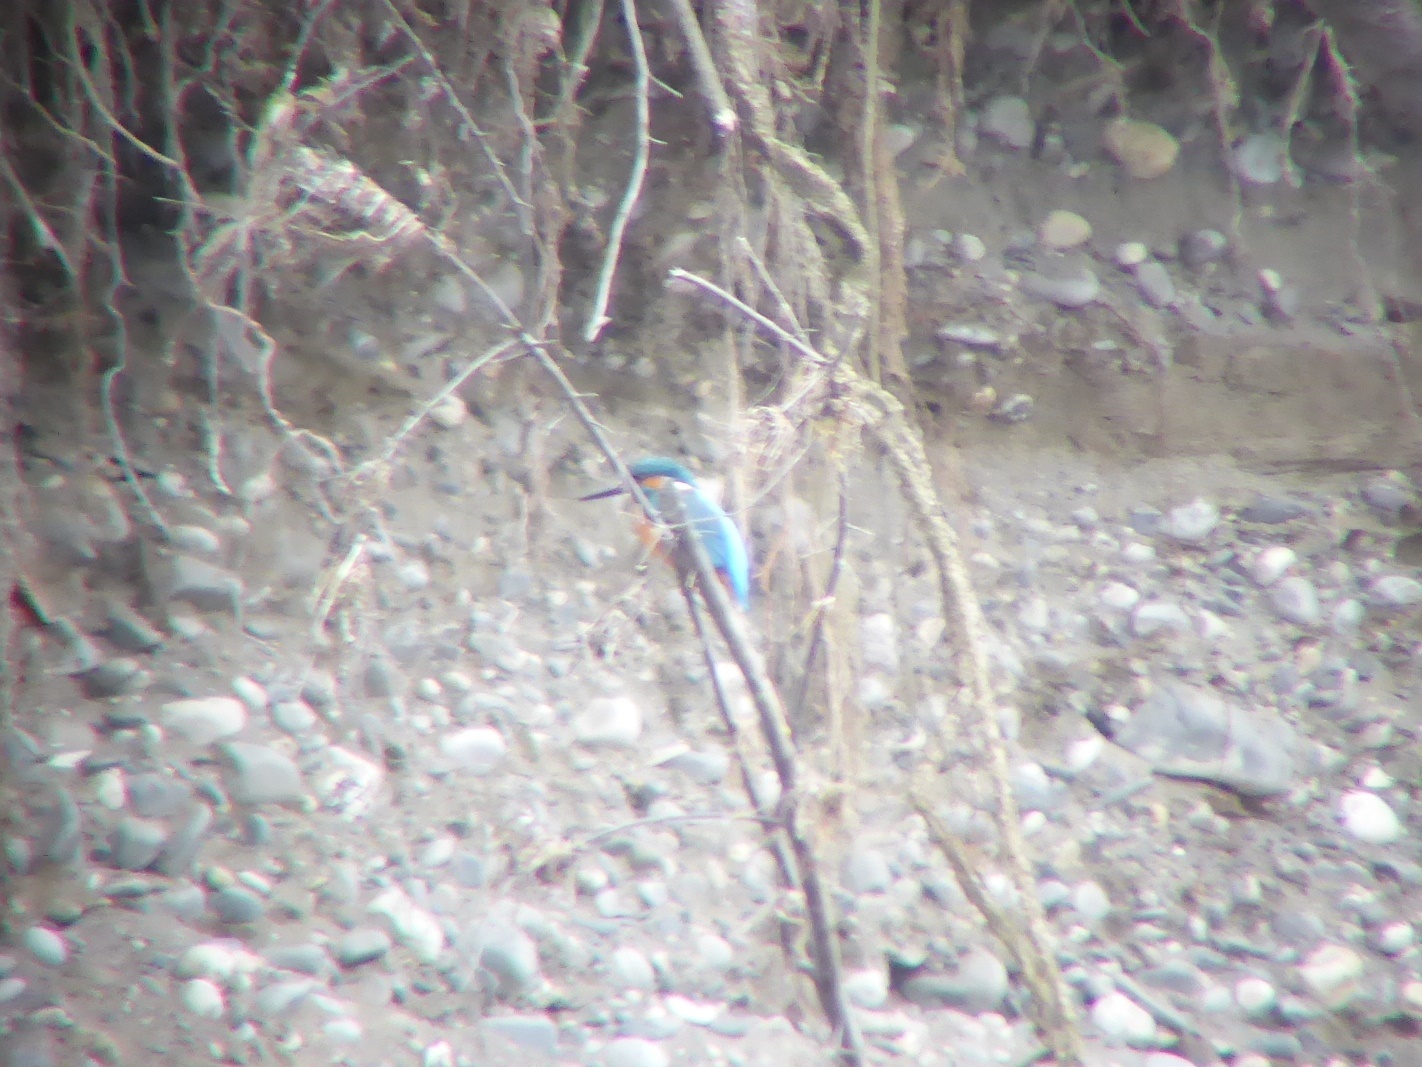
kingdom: Animalia
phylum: Chordata
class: Aves
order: Coraciiformes
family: Alcedinidae
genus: Alcedo
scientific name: Alcedo atthis
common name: Common kingfisher
